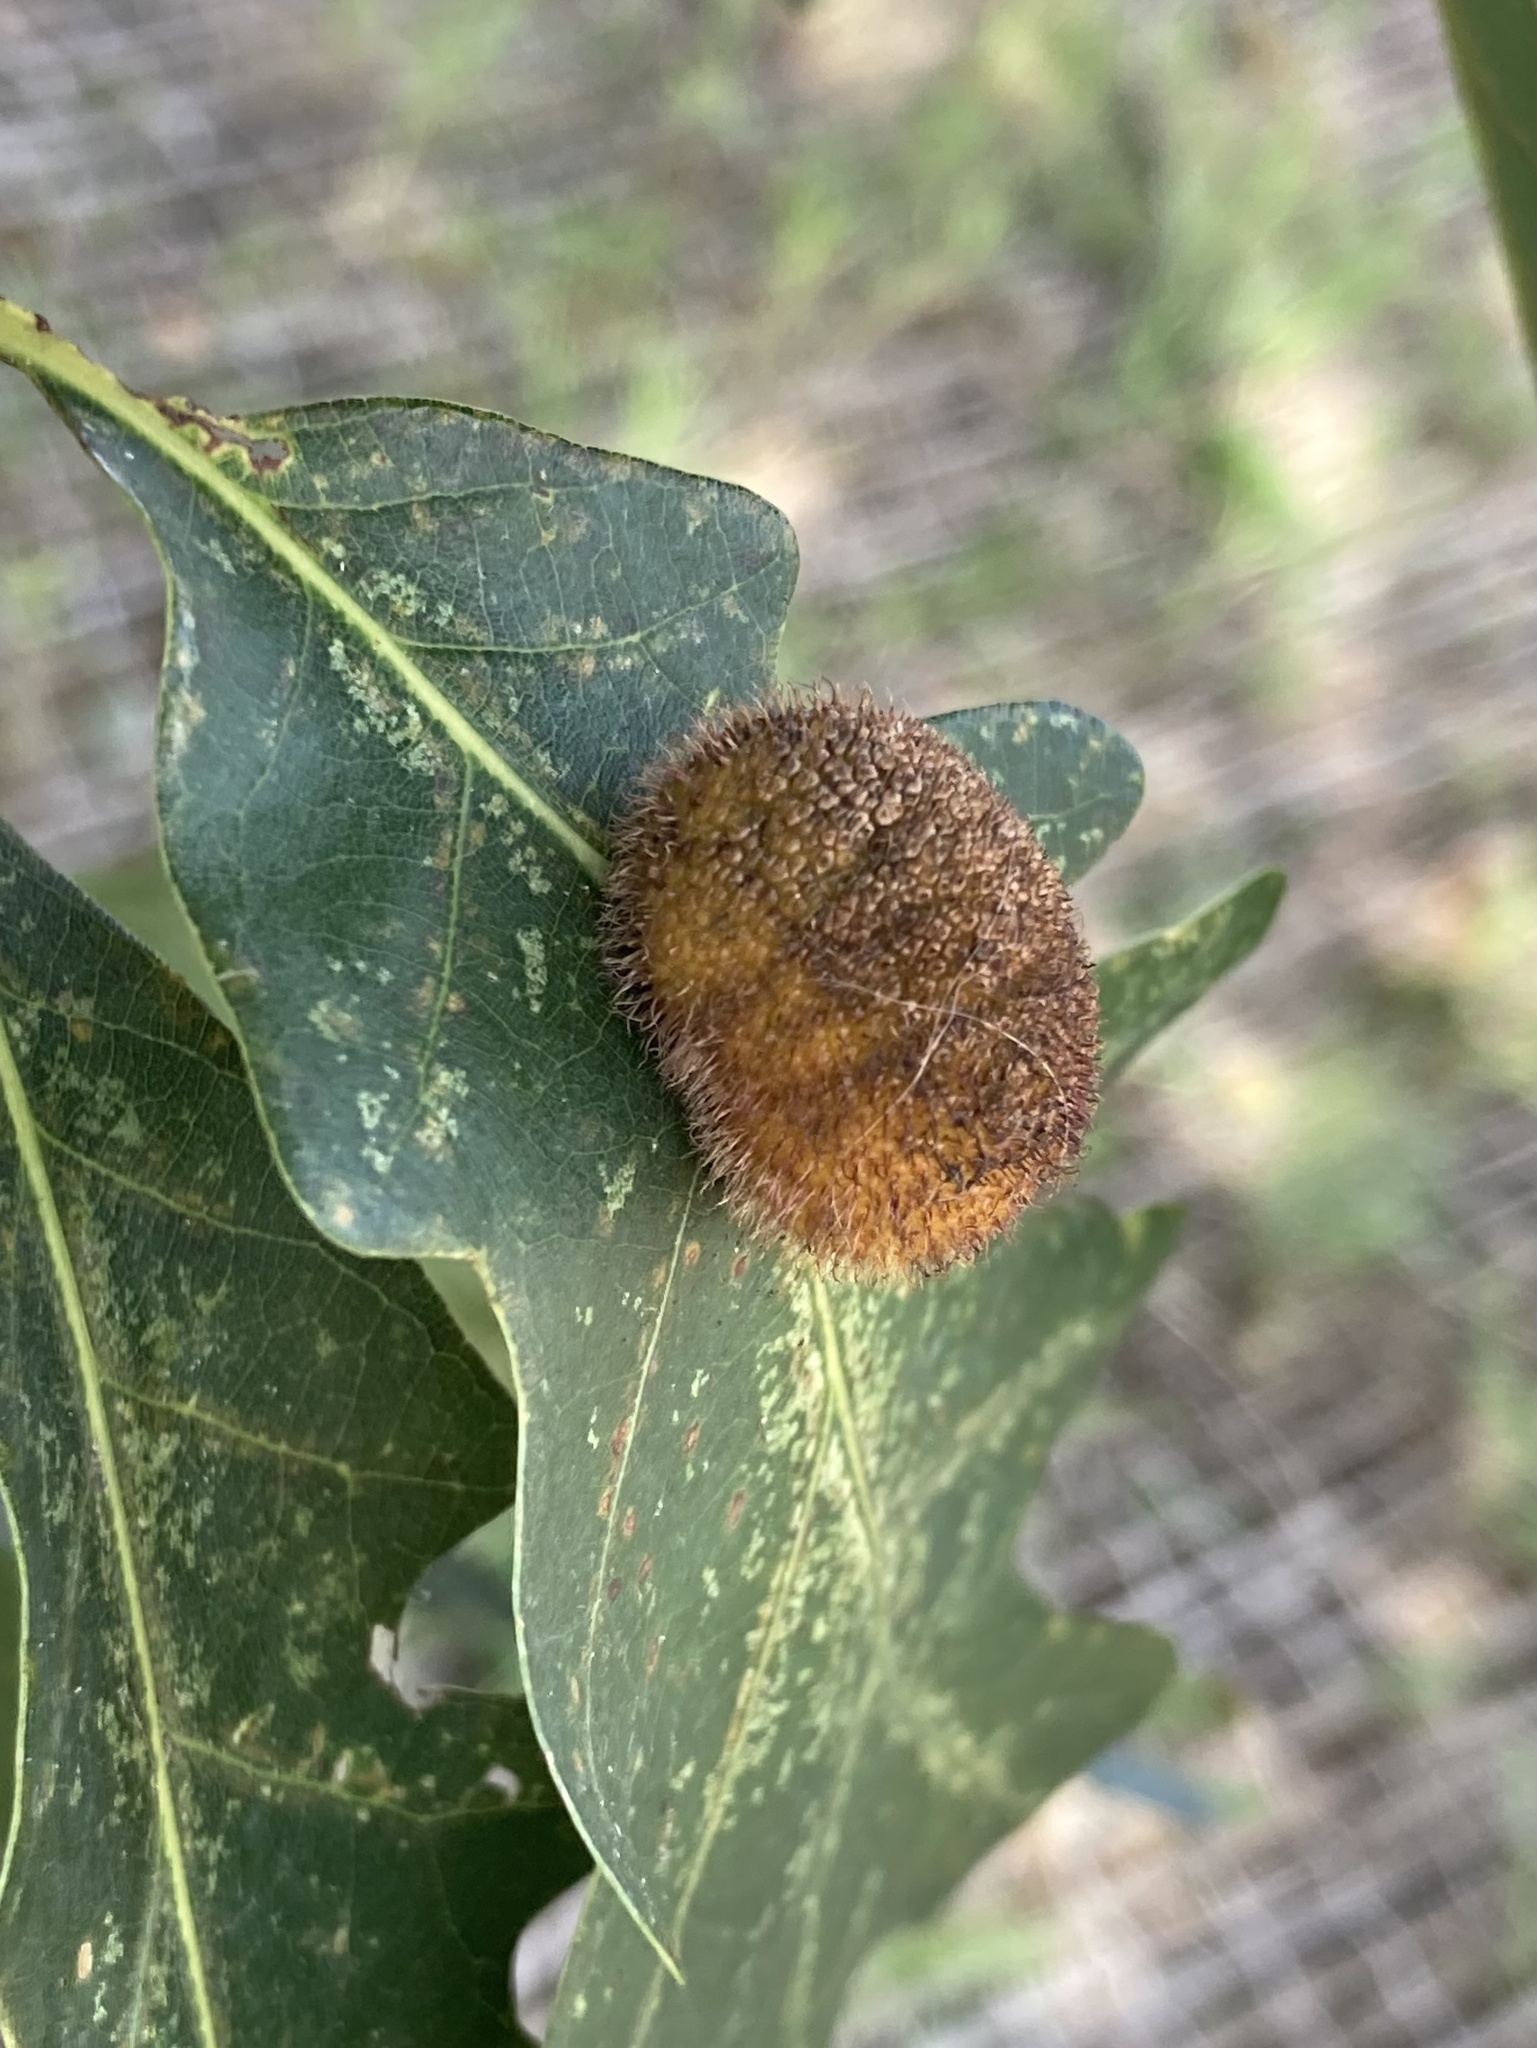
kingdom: Animalia
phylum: Arthropoda
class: Insecta
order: Hymenoptera
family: Cynipidae
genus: Acraspis
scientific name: Acraspis erinacei
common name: Hedgehog gall wasp
